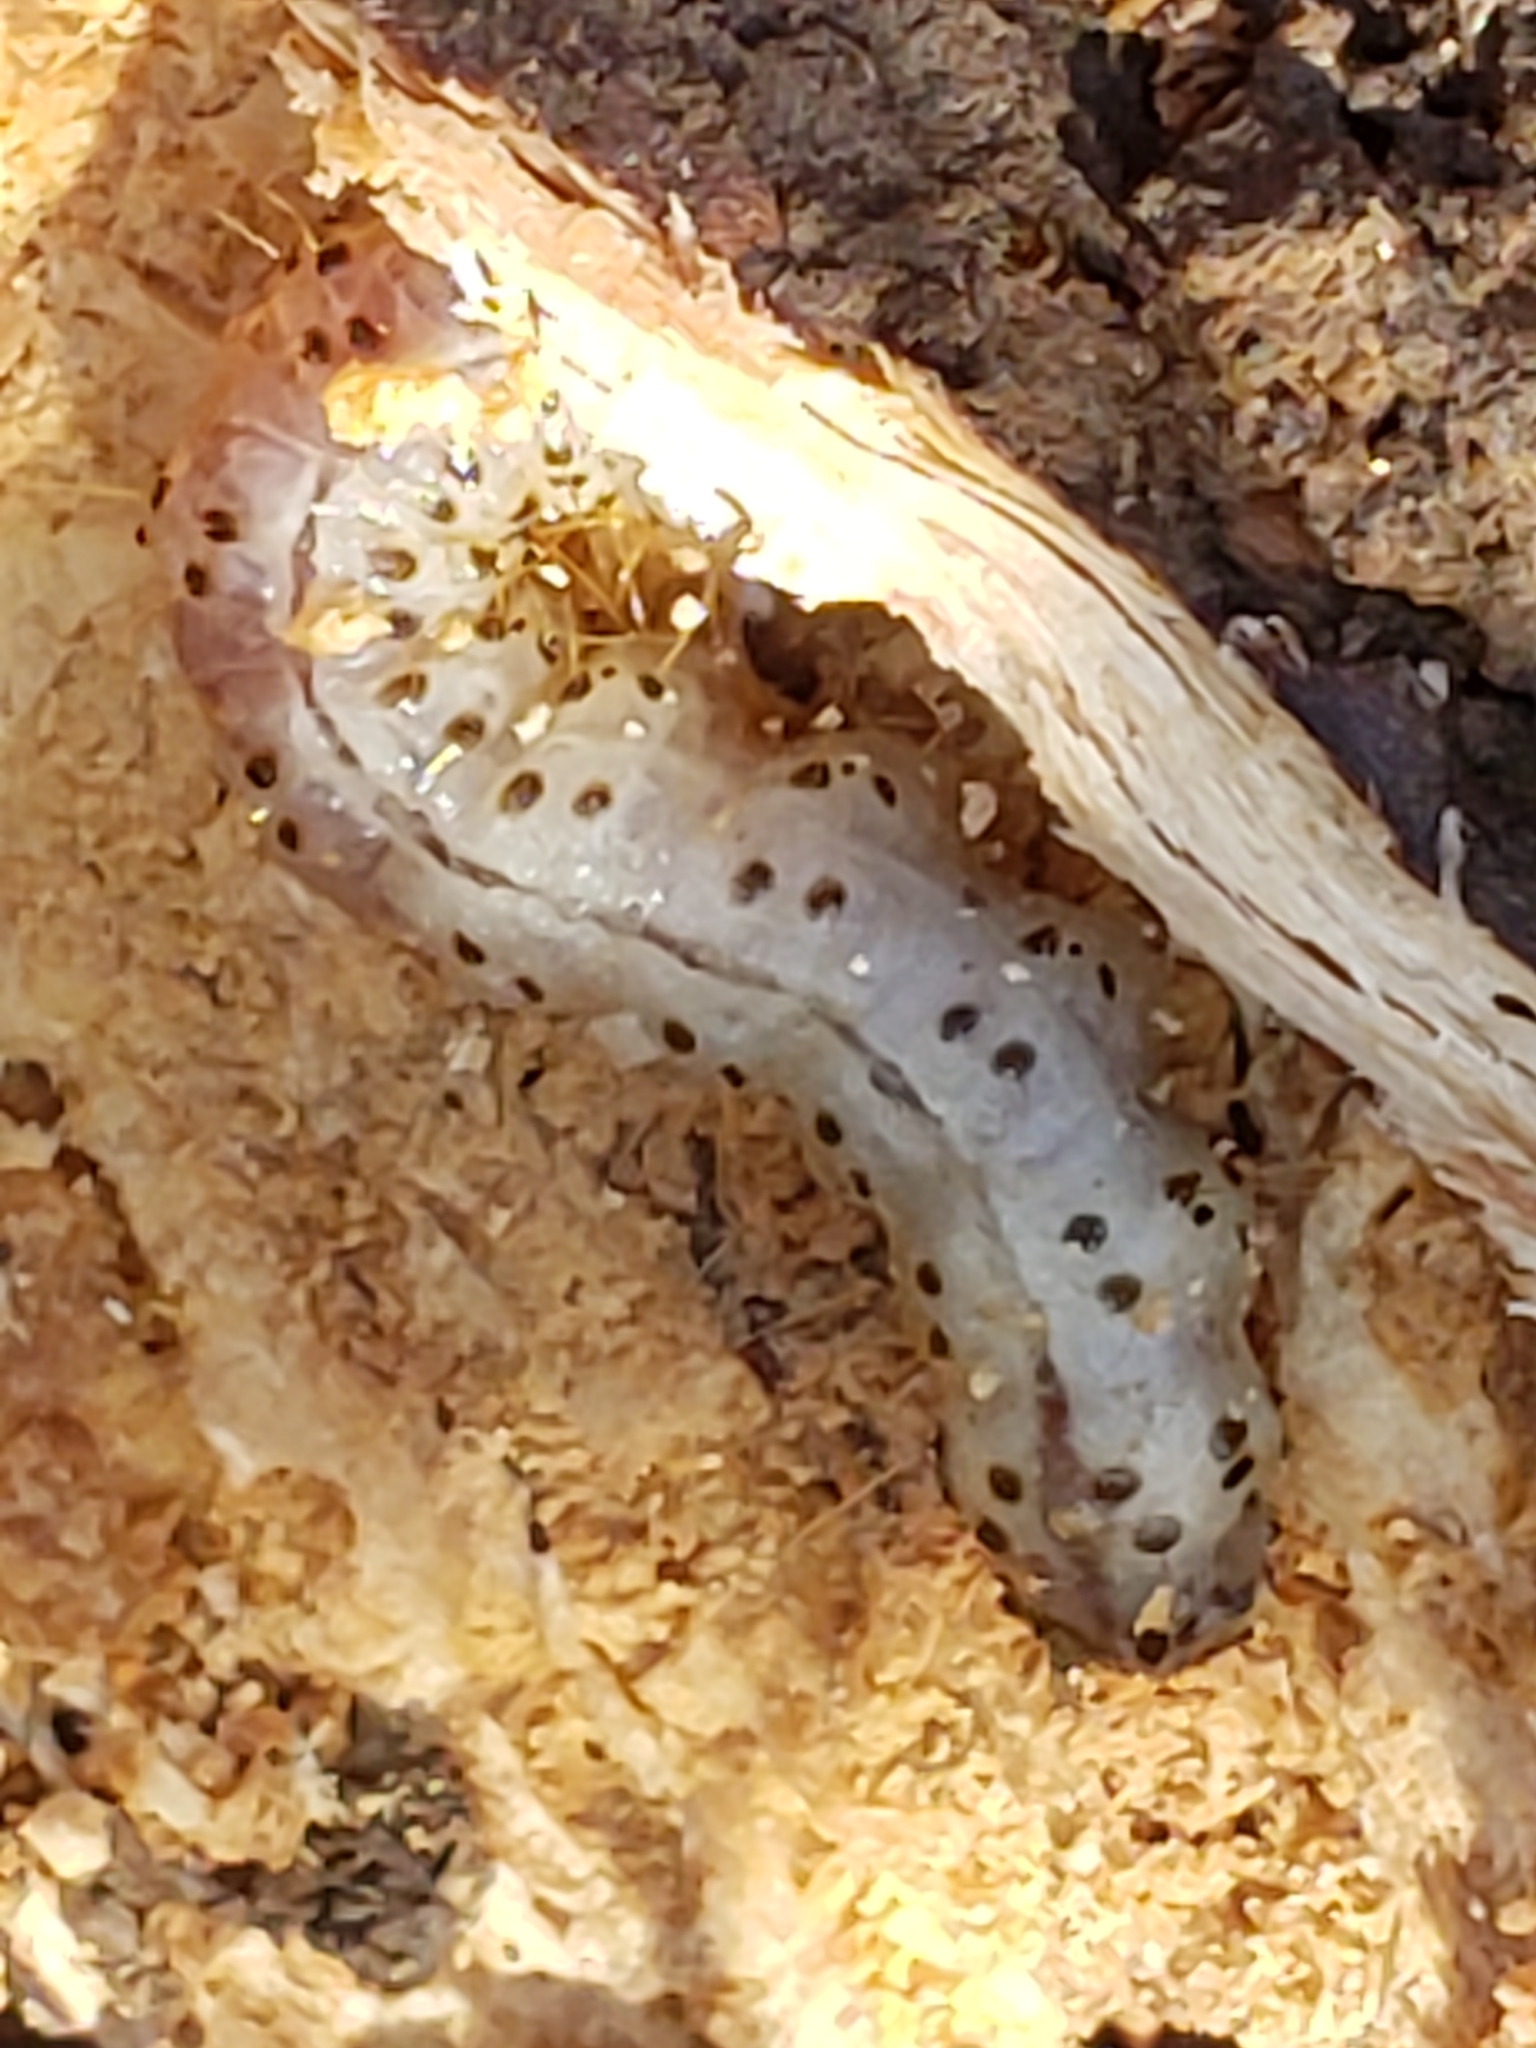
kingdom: Animalia
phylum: Arthropoda
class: Insecta
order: Lepidoptera
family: Erebidae
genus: Scolecocampa
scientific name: Scolecocampa liburna
